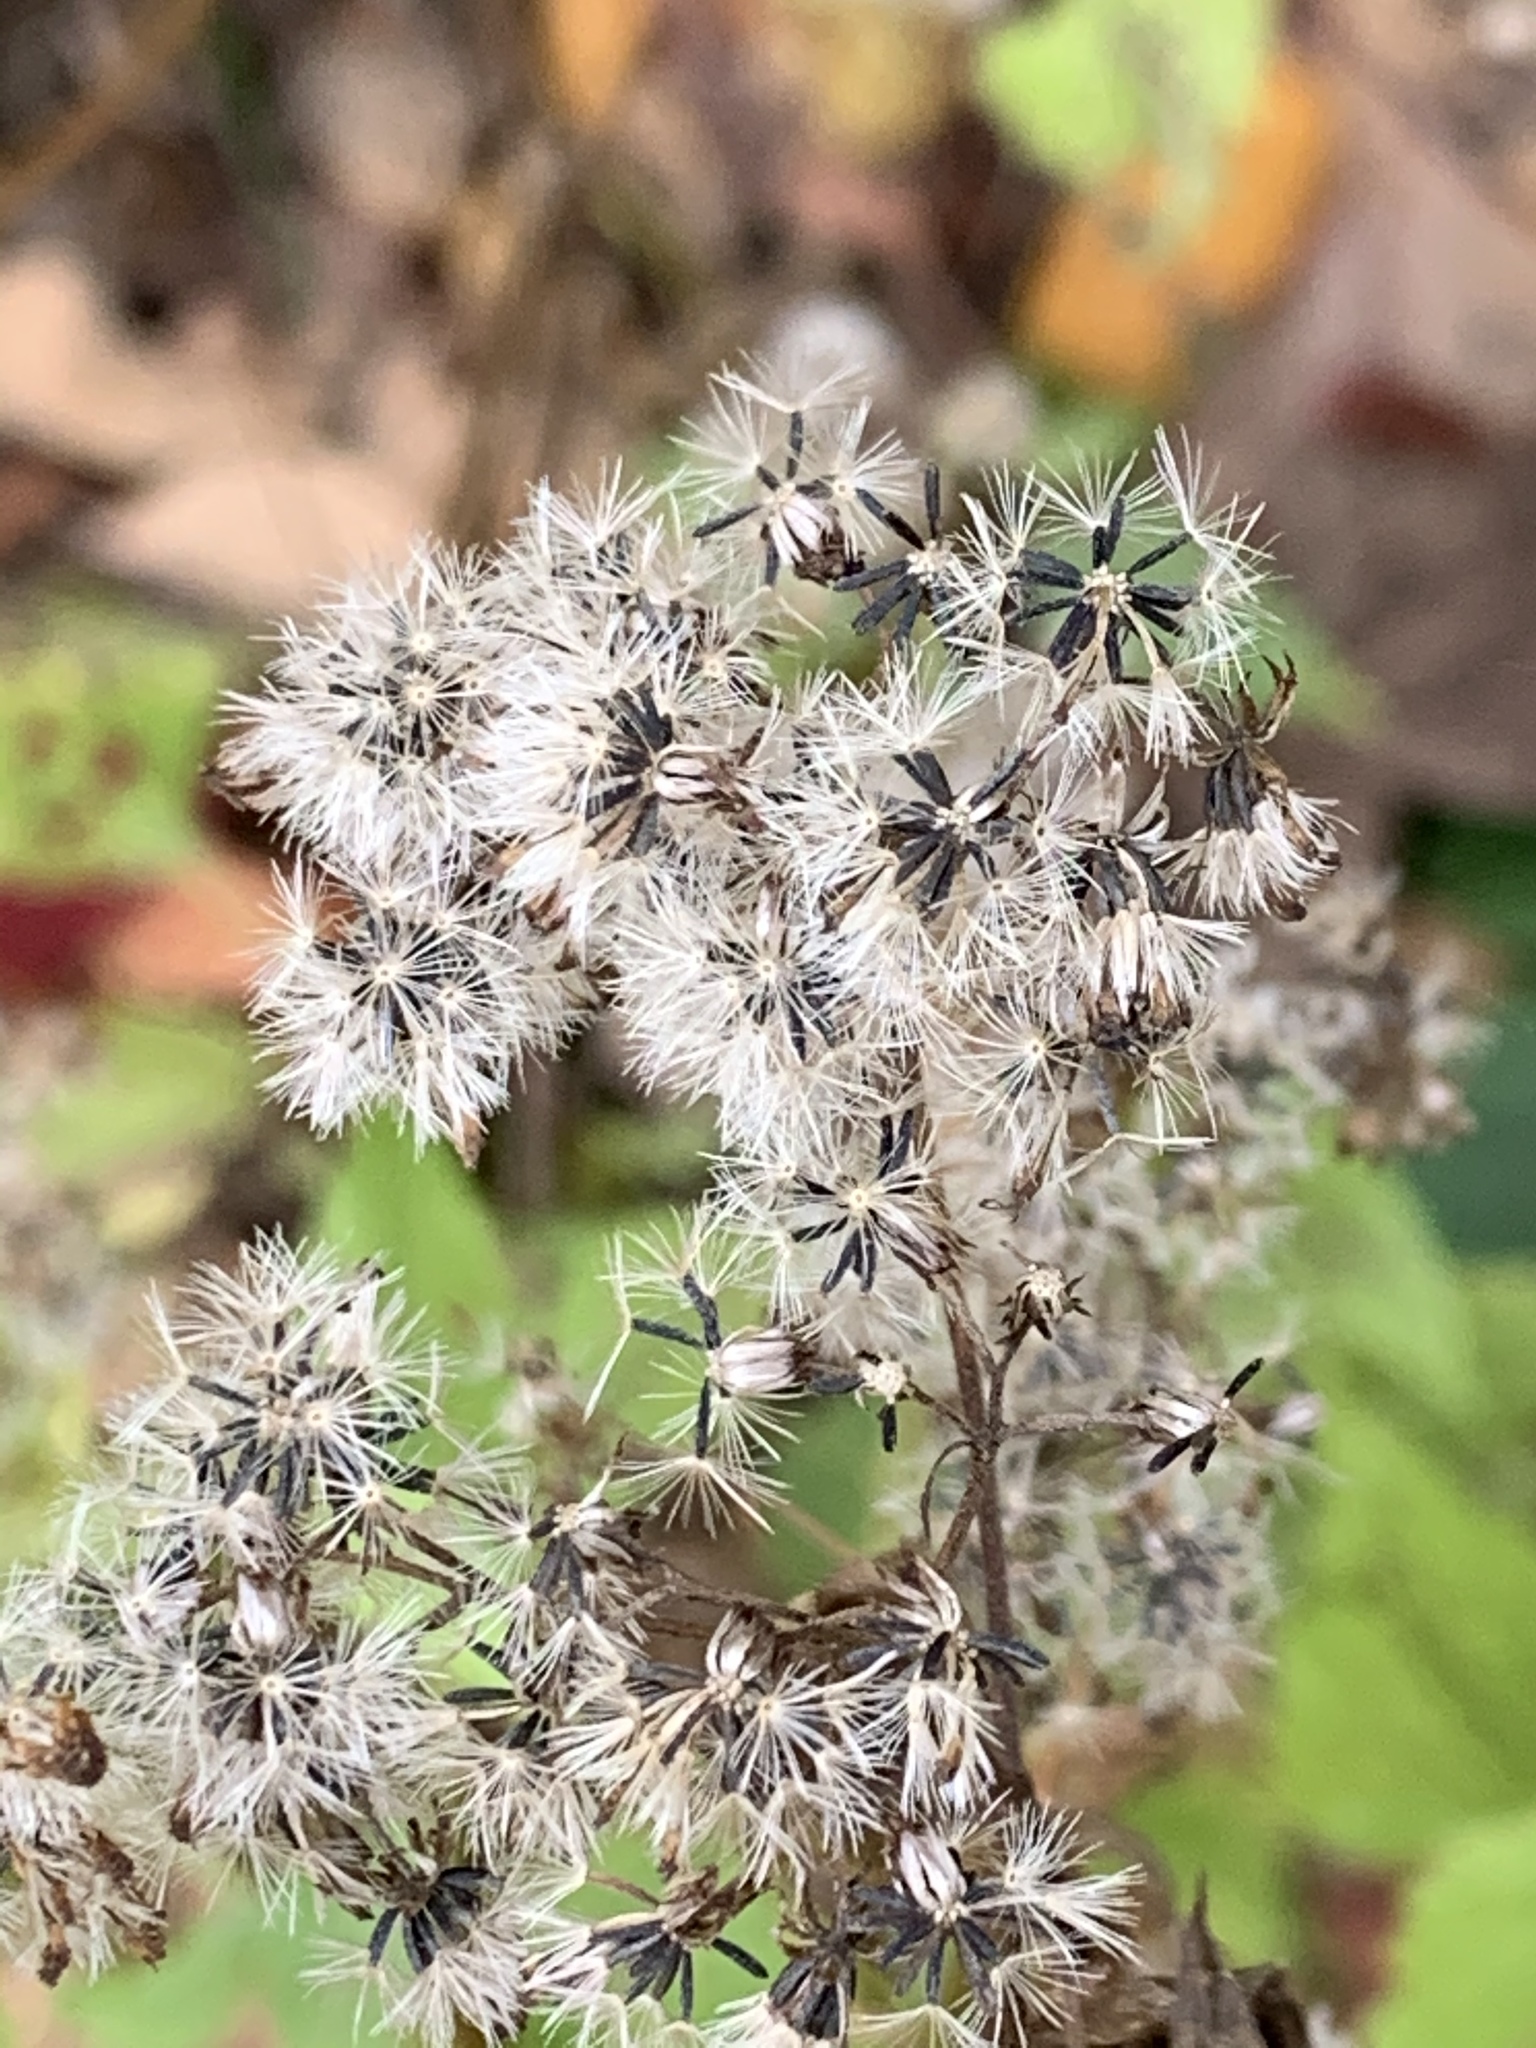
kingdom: Plantae
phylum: Tracheophyta
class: Magnoliopsida
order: Asterales
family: Asteraceae
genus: Ageratina
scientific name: Ageratina altissima
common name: White snakeroot
